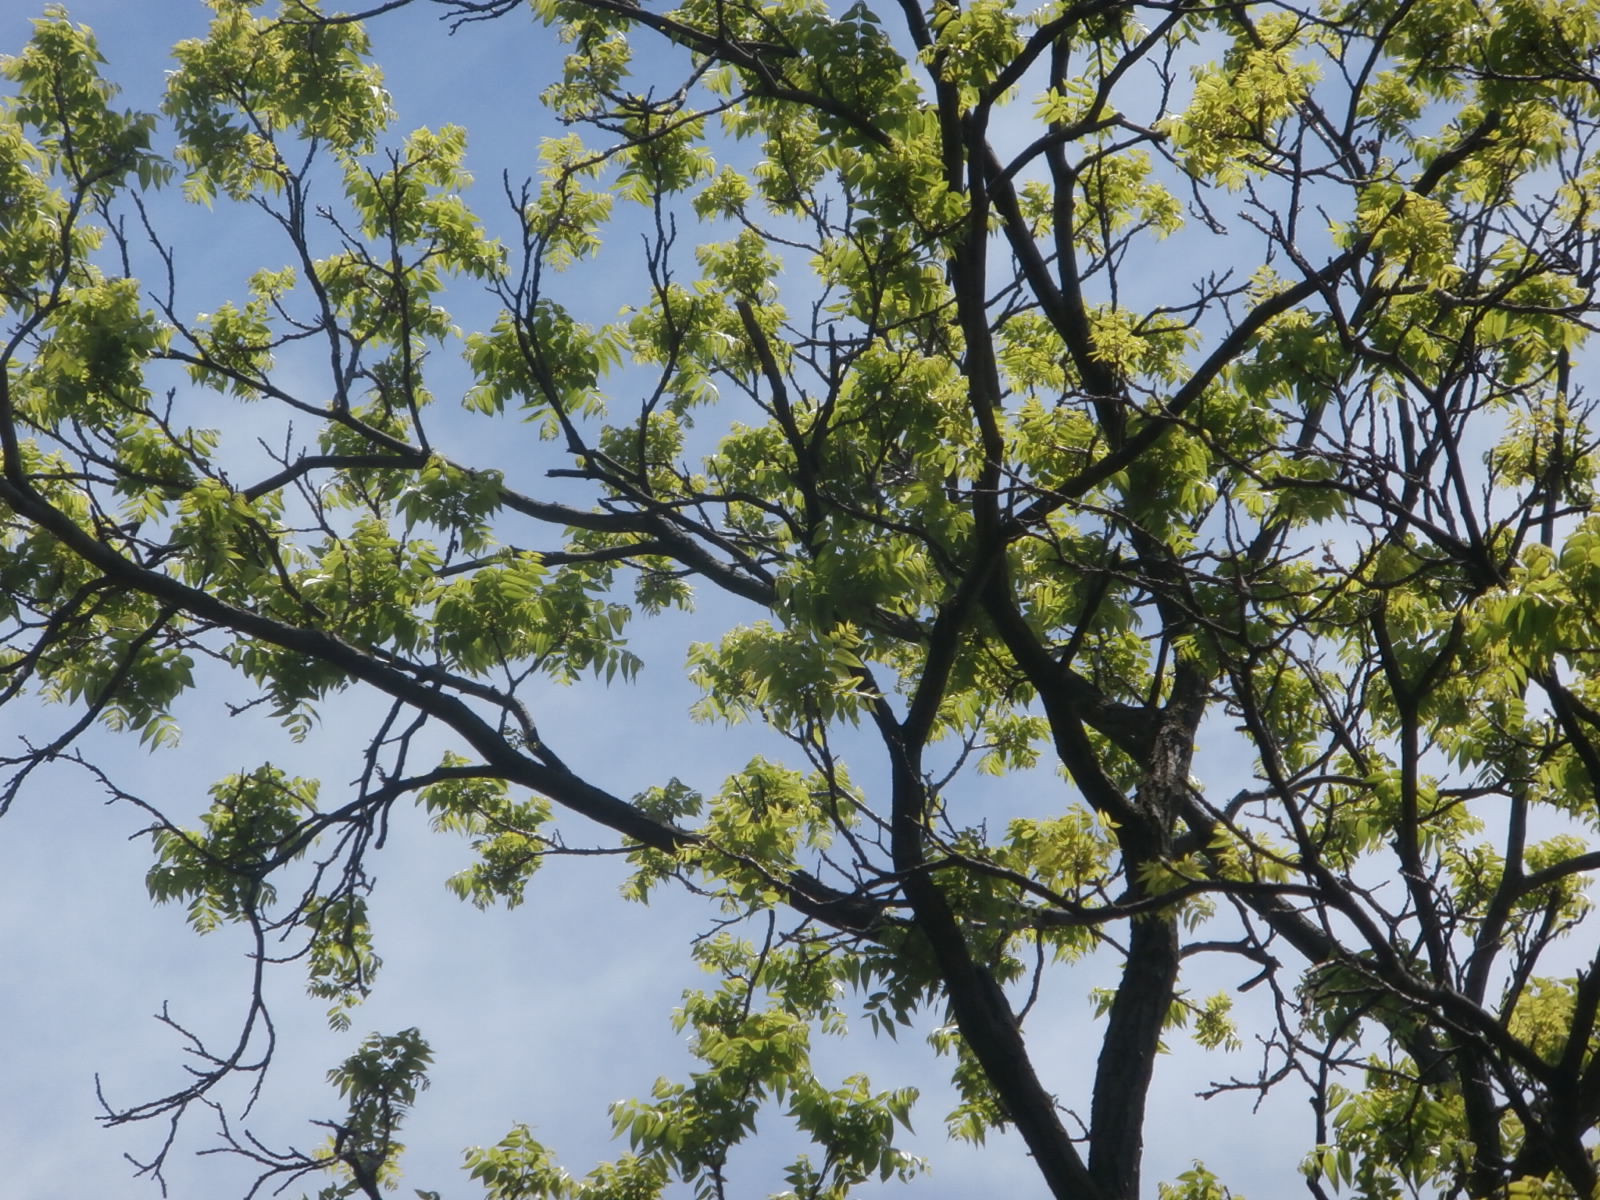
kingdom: Plantae
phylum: Tracheophyta
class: Magnoliopsida
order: Fagales
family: Juglandaceae
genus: Juglans
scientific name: Juglans cinerea
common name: Butternut
